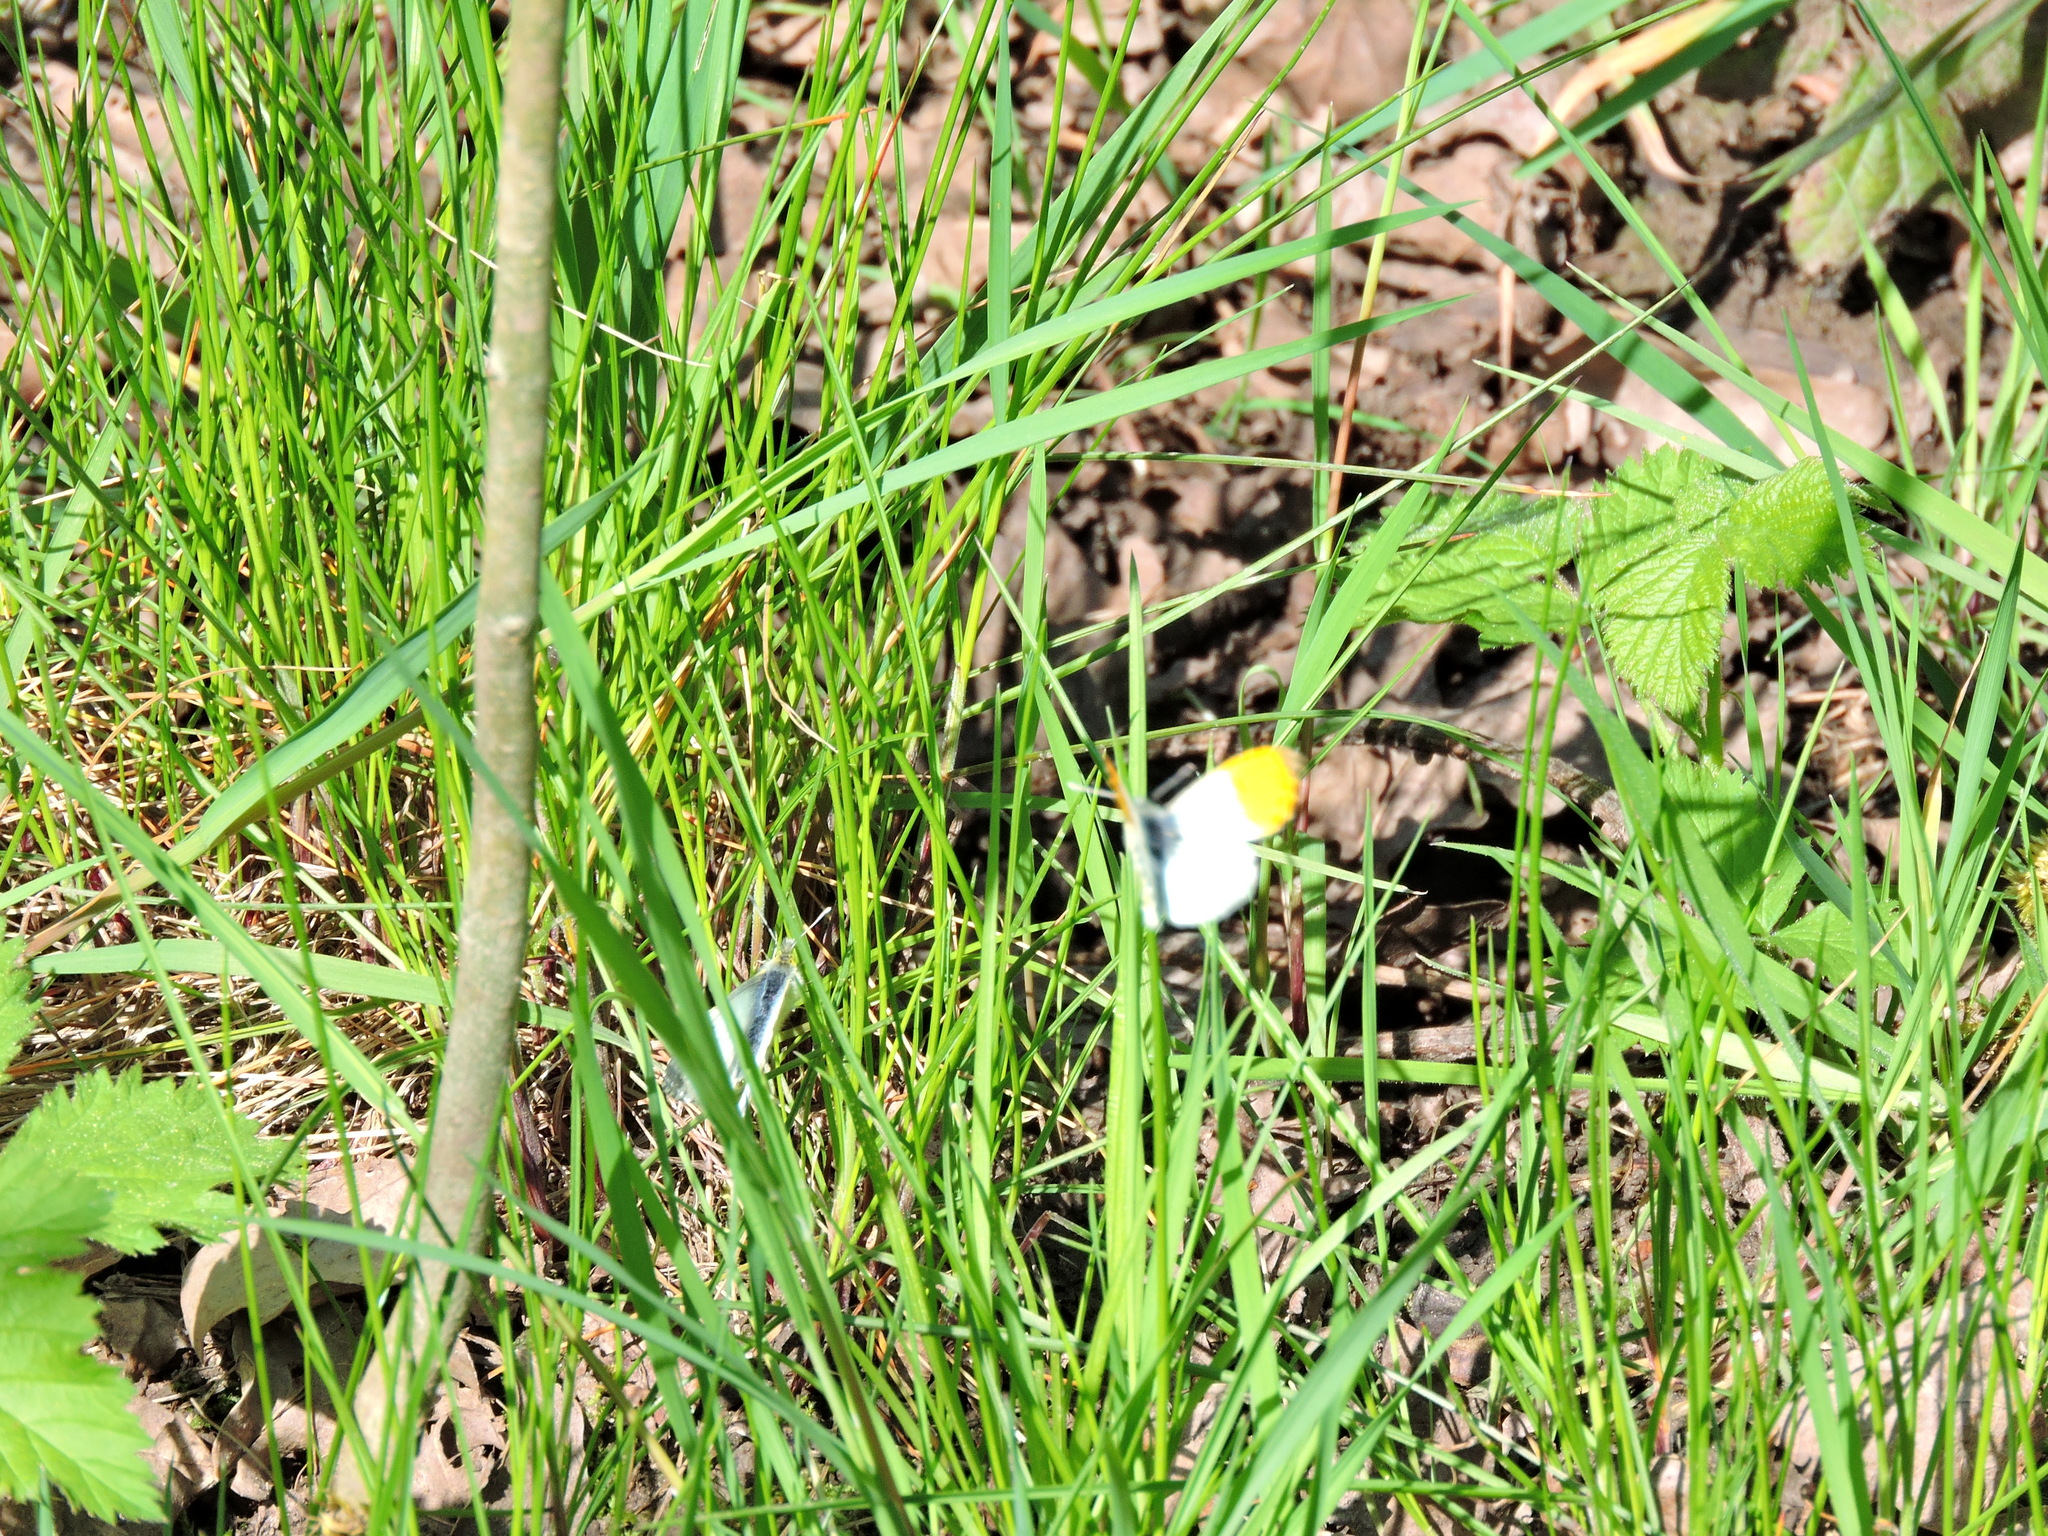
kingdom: Animalia
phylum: Arthropoda
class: Insecta
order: Lepidoptera
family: Pieridae
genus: Anthocharis
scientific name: Anthocharis cardamines
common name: Orange-tip
